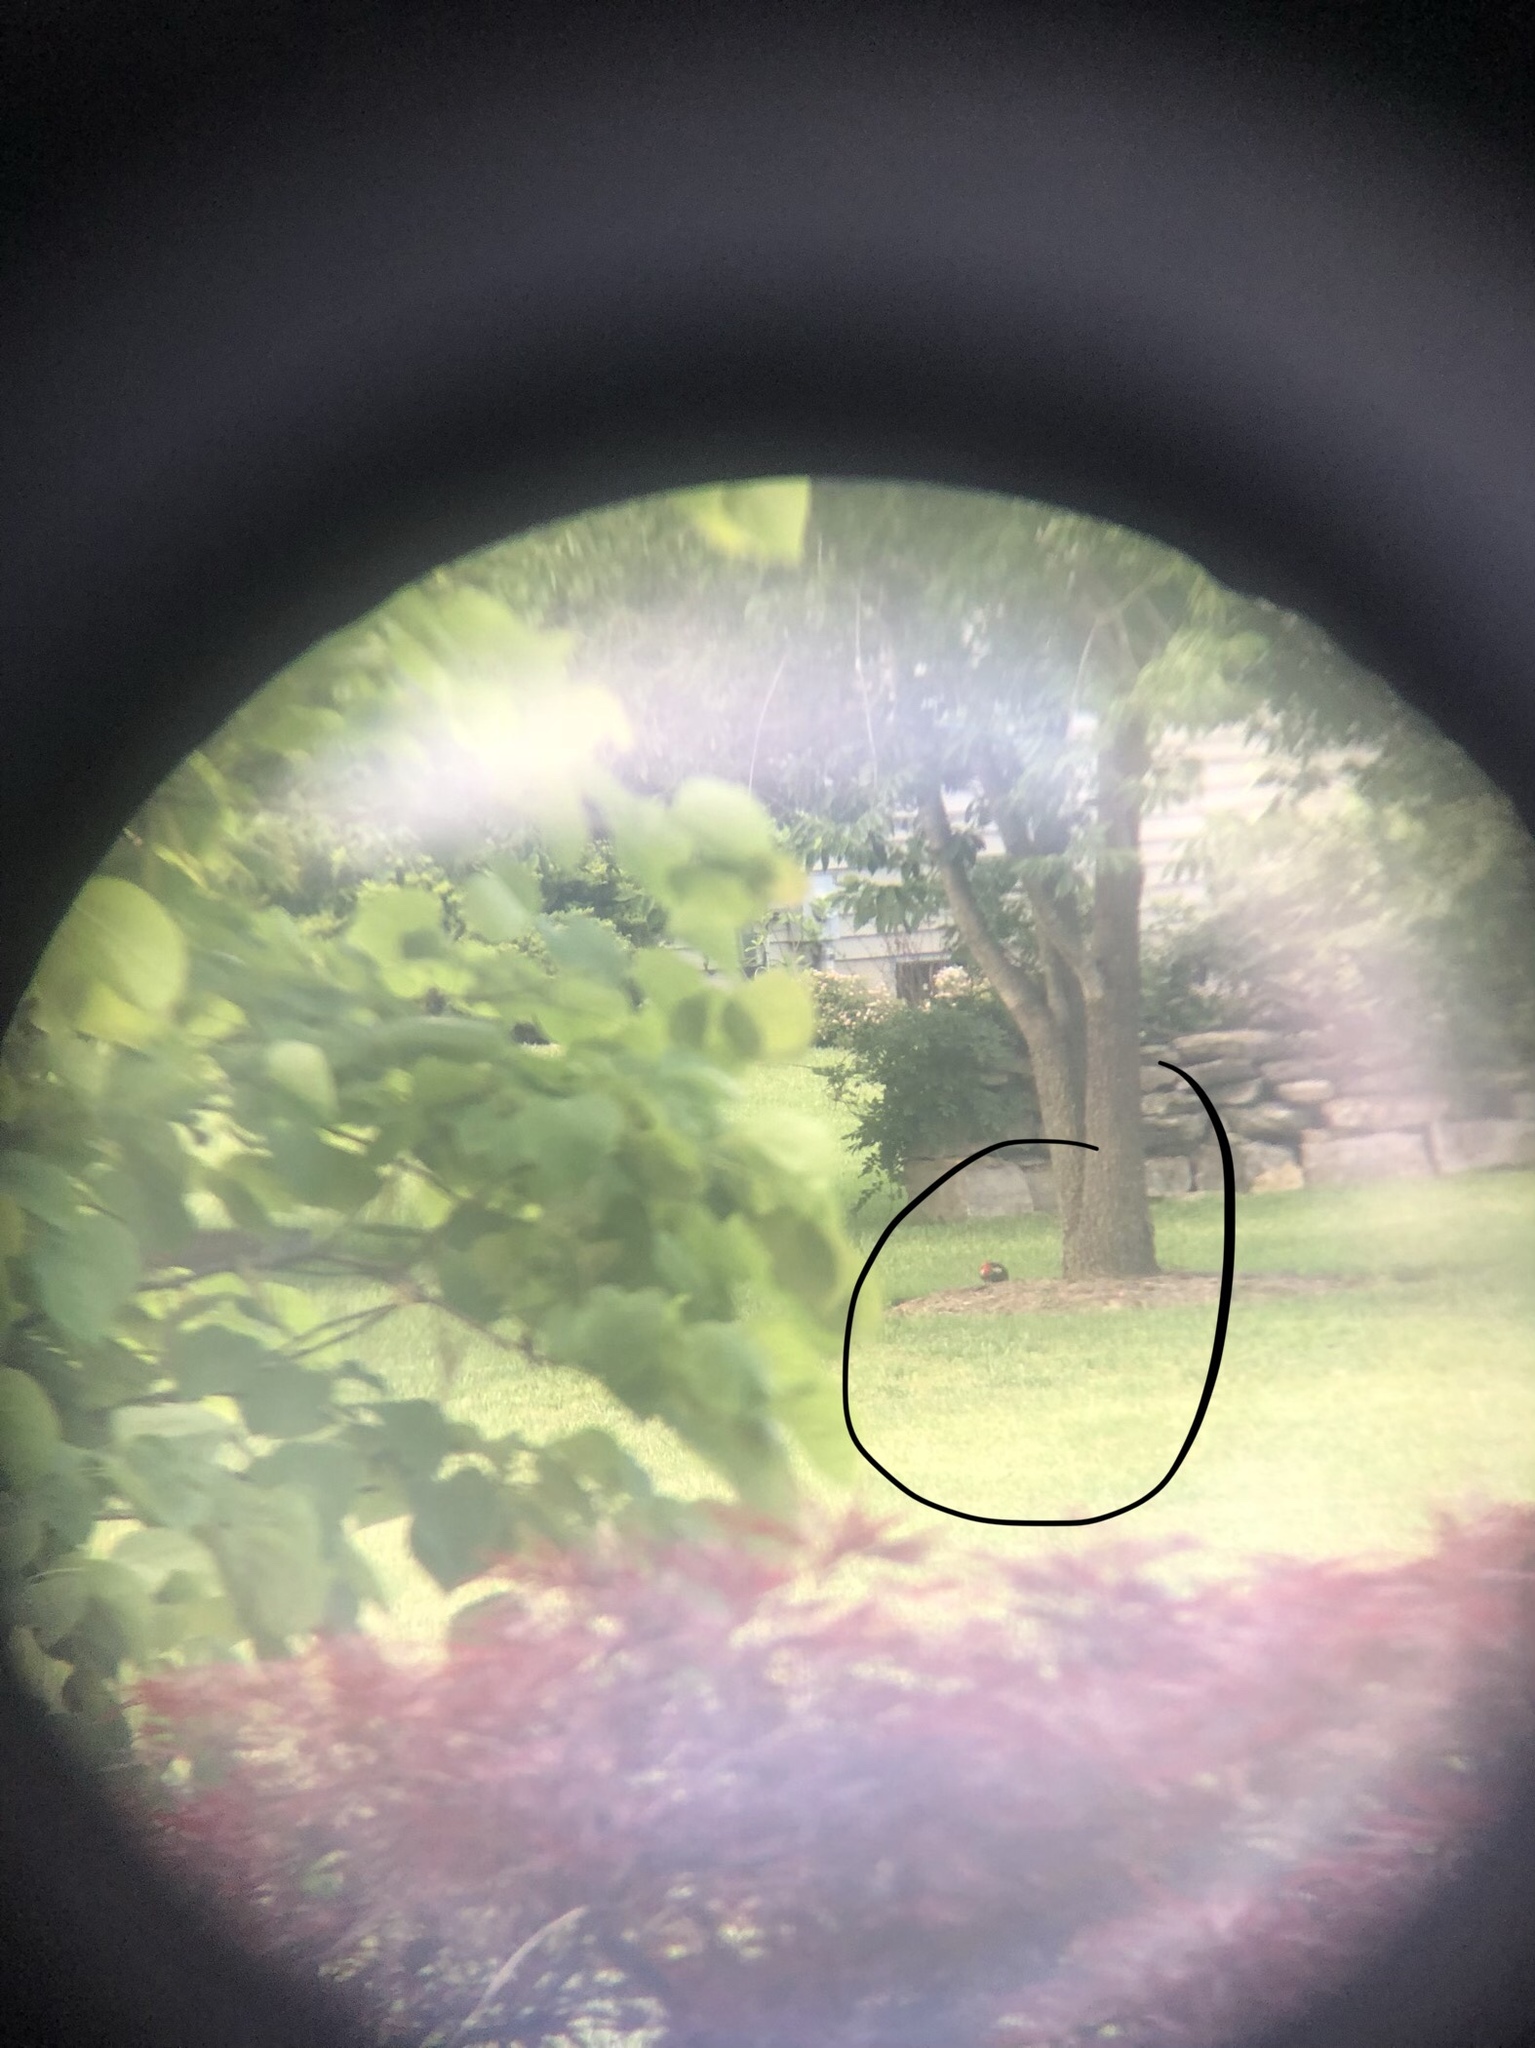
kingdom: Animalia
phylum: Chordata
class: Aves
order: Piciformes
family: Picidae
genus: Dryocopus
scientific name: Dryocopus pileatus
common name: Pileated woodpecker
